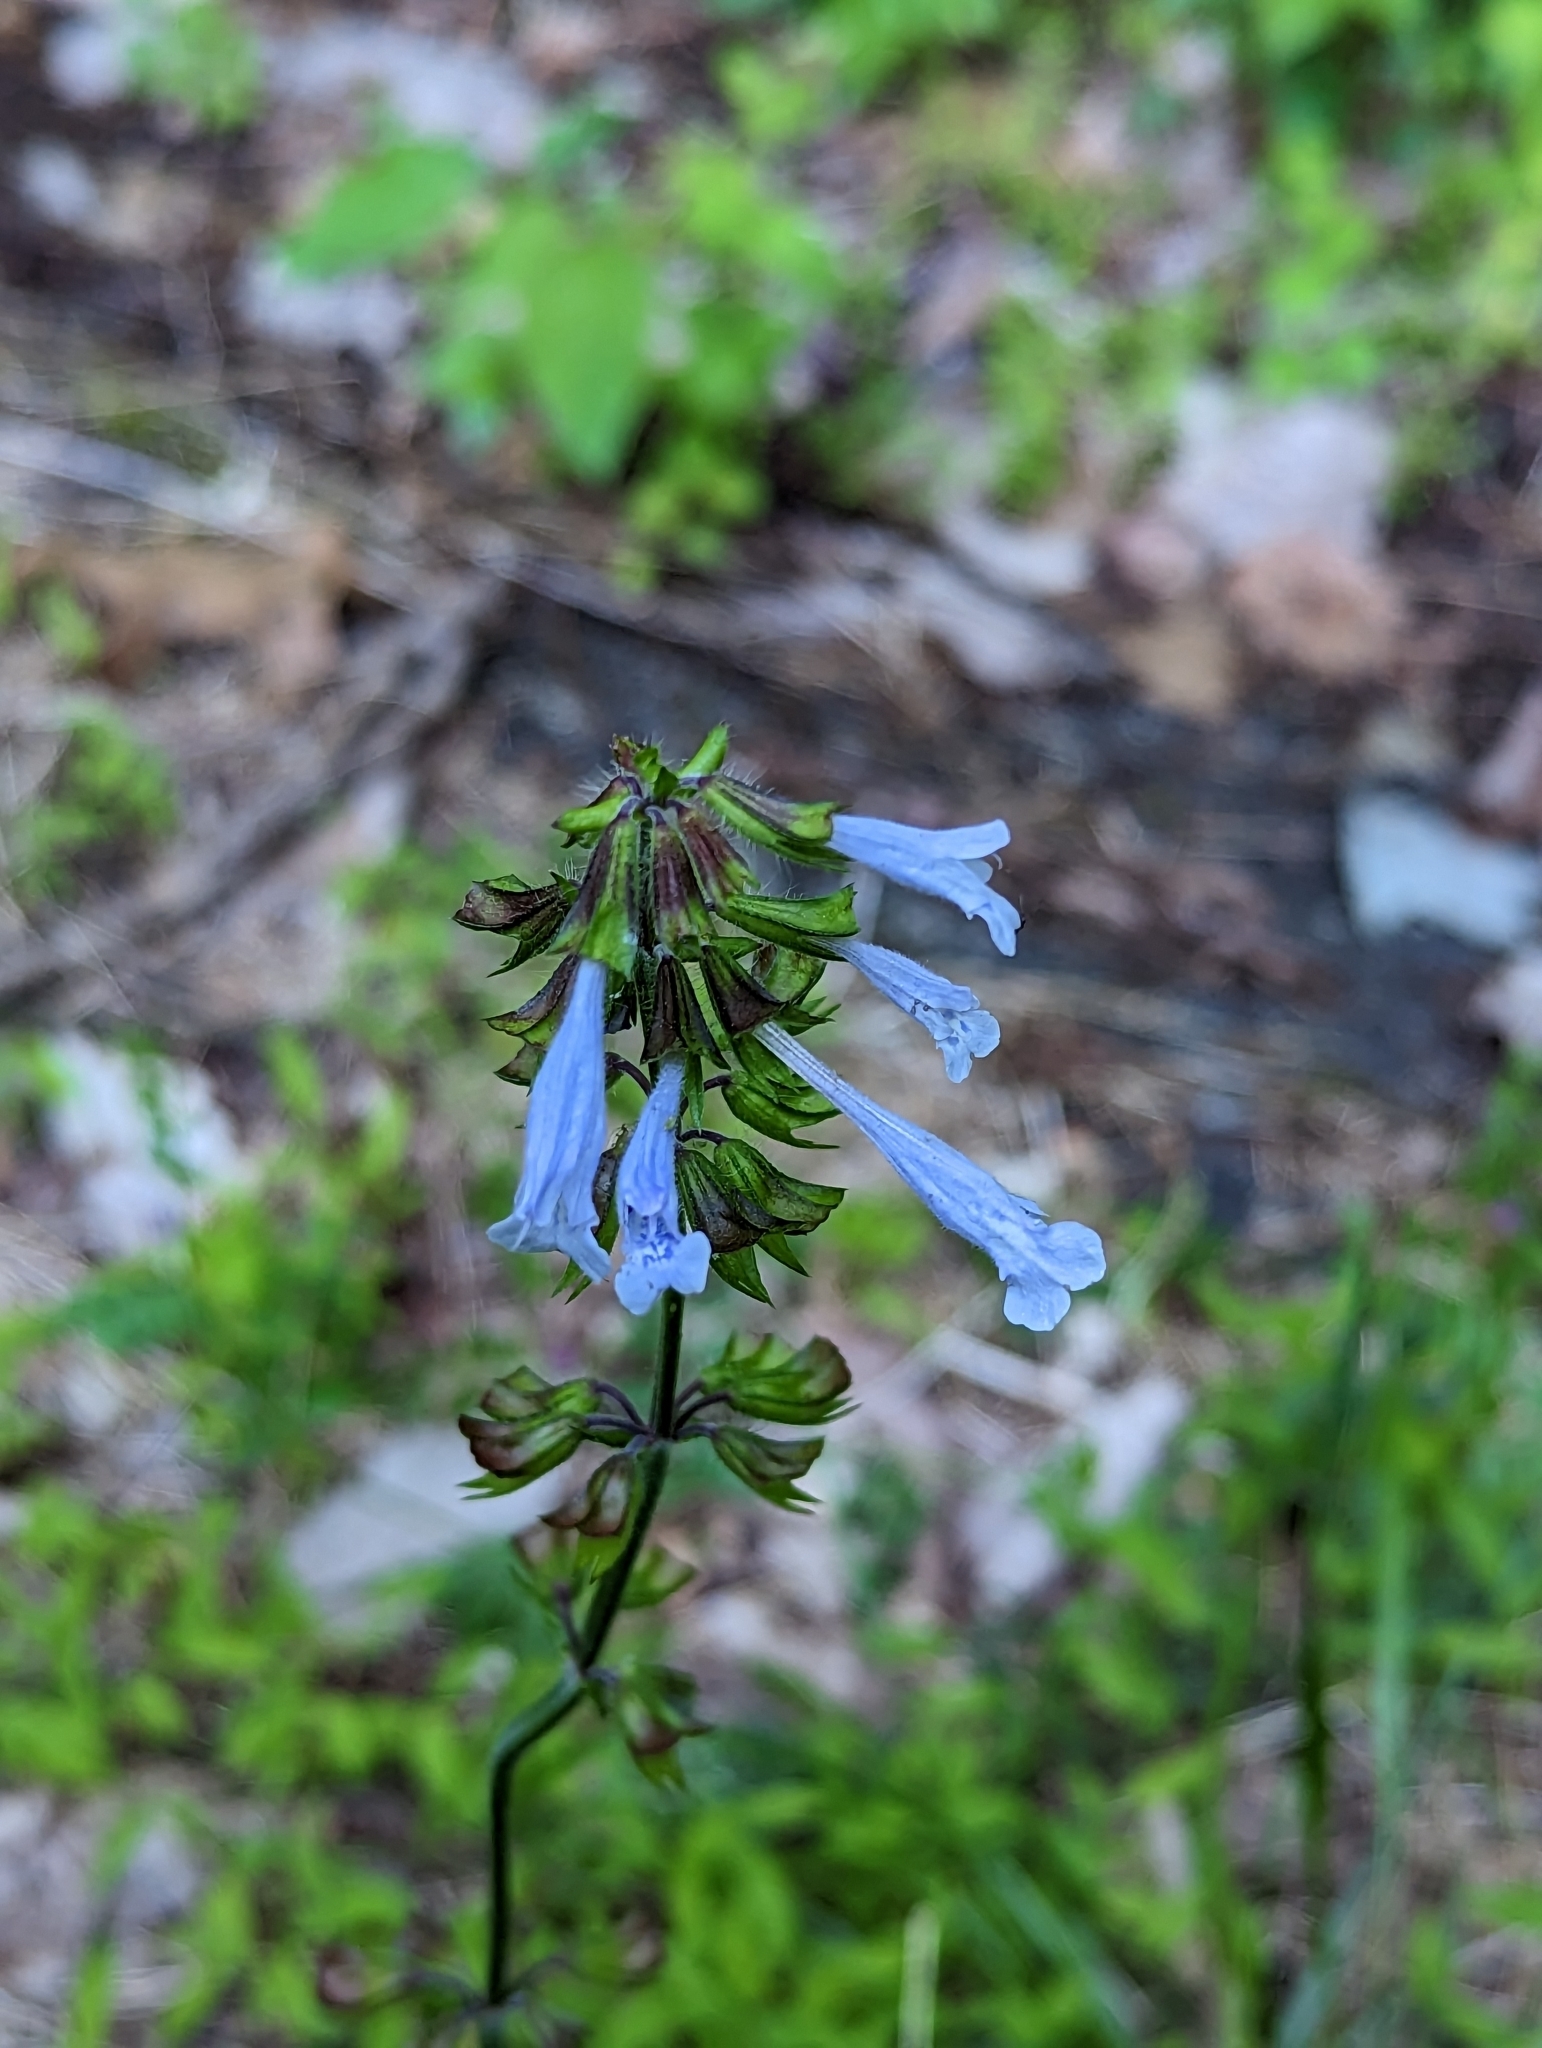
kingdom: Plantae
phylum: Tracheophyta
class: Magnoliopsida
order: Lamiales
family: Lamiaceae
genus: Salvia
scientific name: Salvia lyrata
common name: Cancerweed
